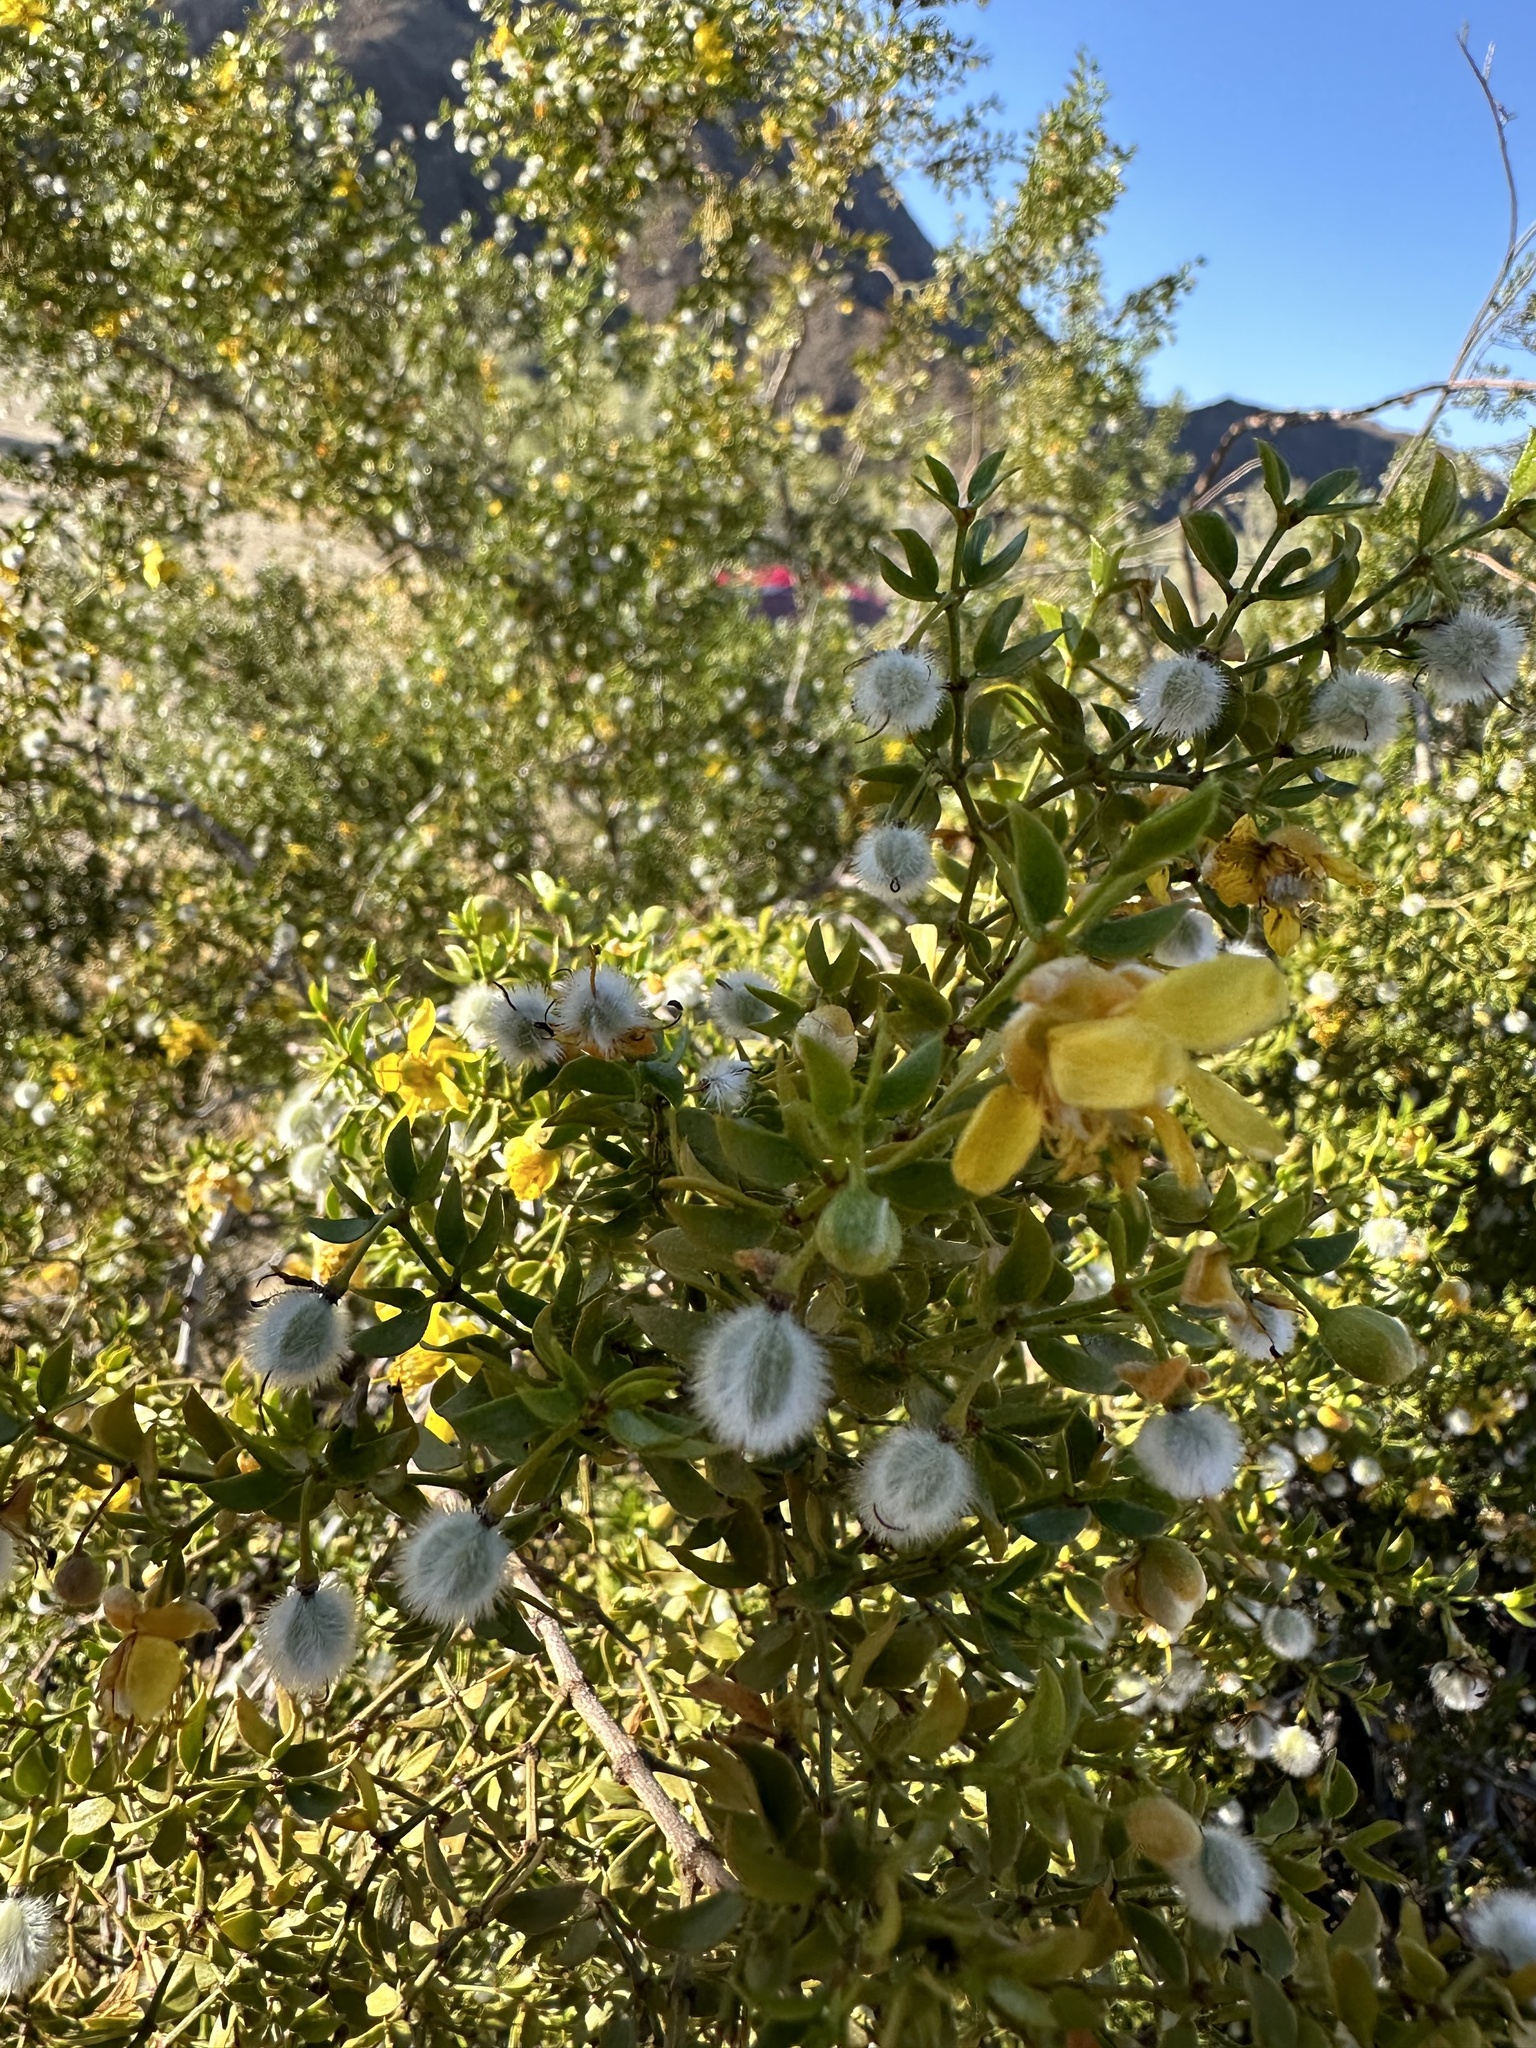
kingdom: Plantae
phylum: Tracheophyta
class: Magnoliopsida
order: Zygophyllales
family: Zygophyllaceae
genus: Larrea
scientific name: Larrea tridentata
